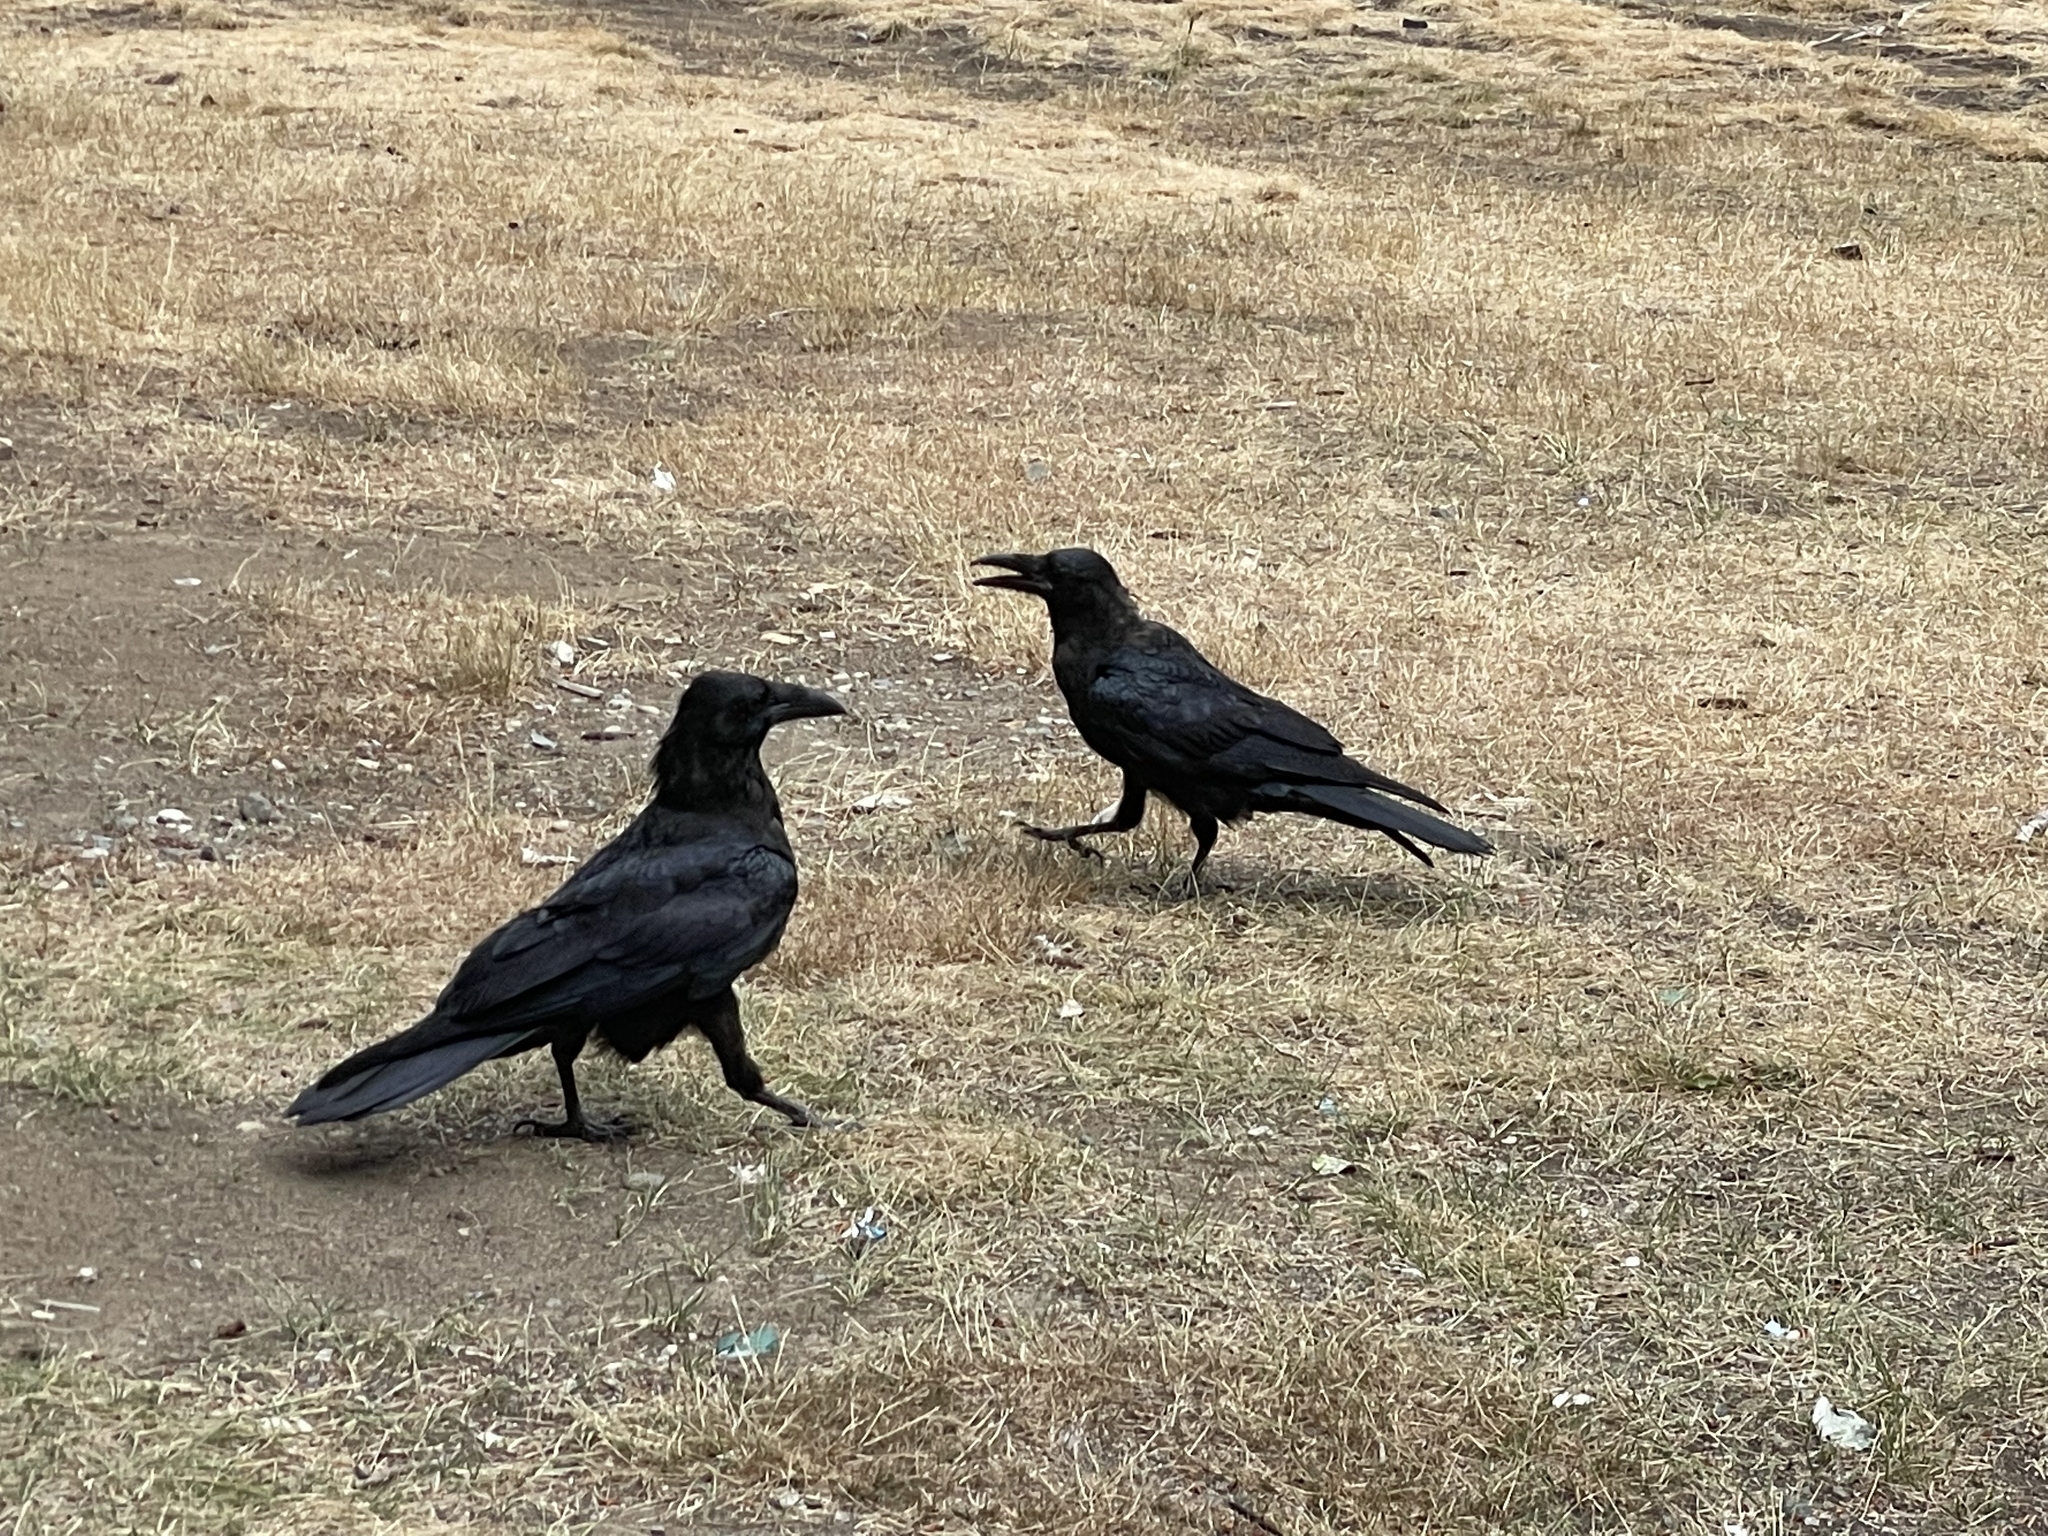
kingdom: Animalia
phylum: Chordata
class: Aves
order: Passeriformes
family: Corvidae
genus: Corvus
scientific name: Corvus corax
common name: Common raven
